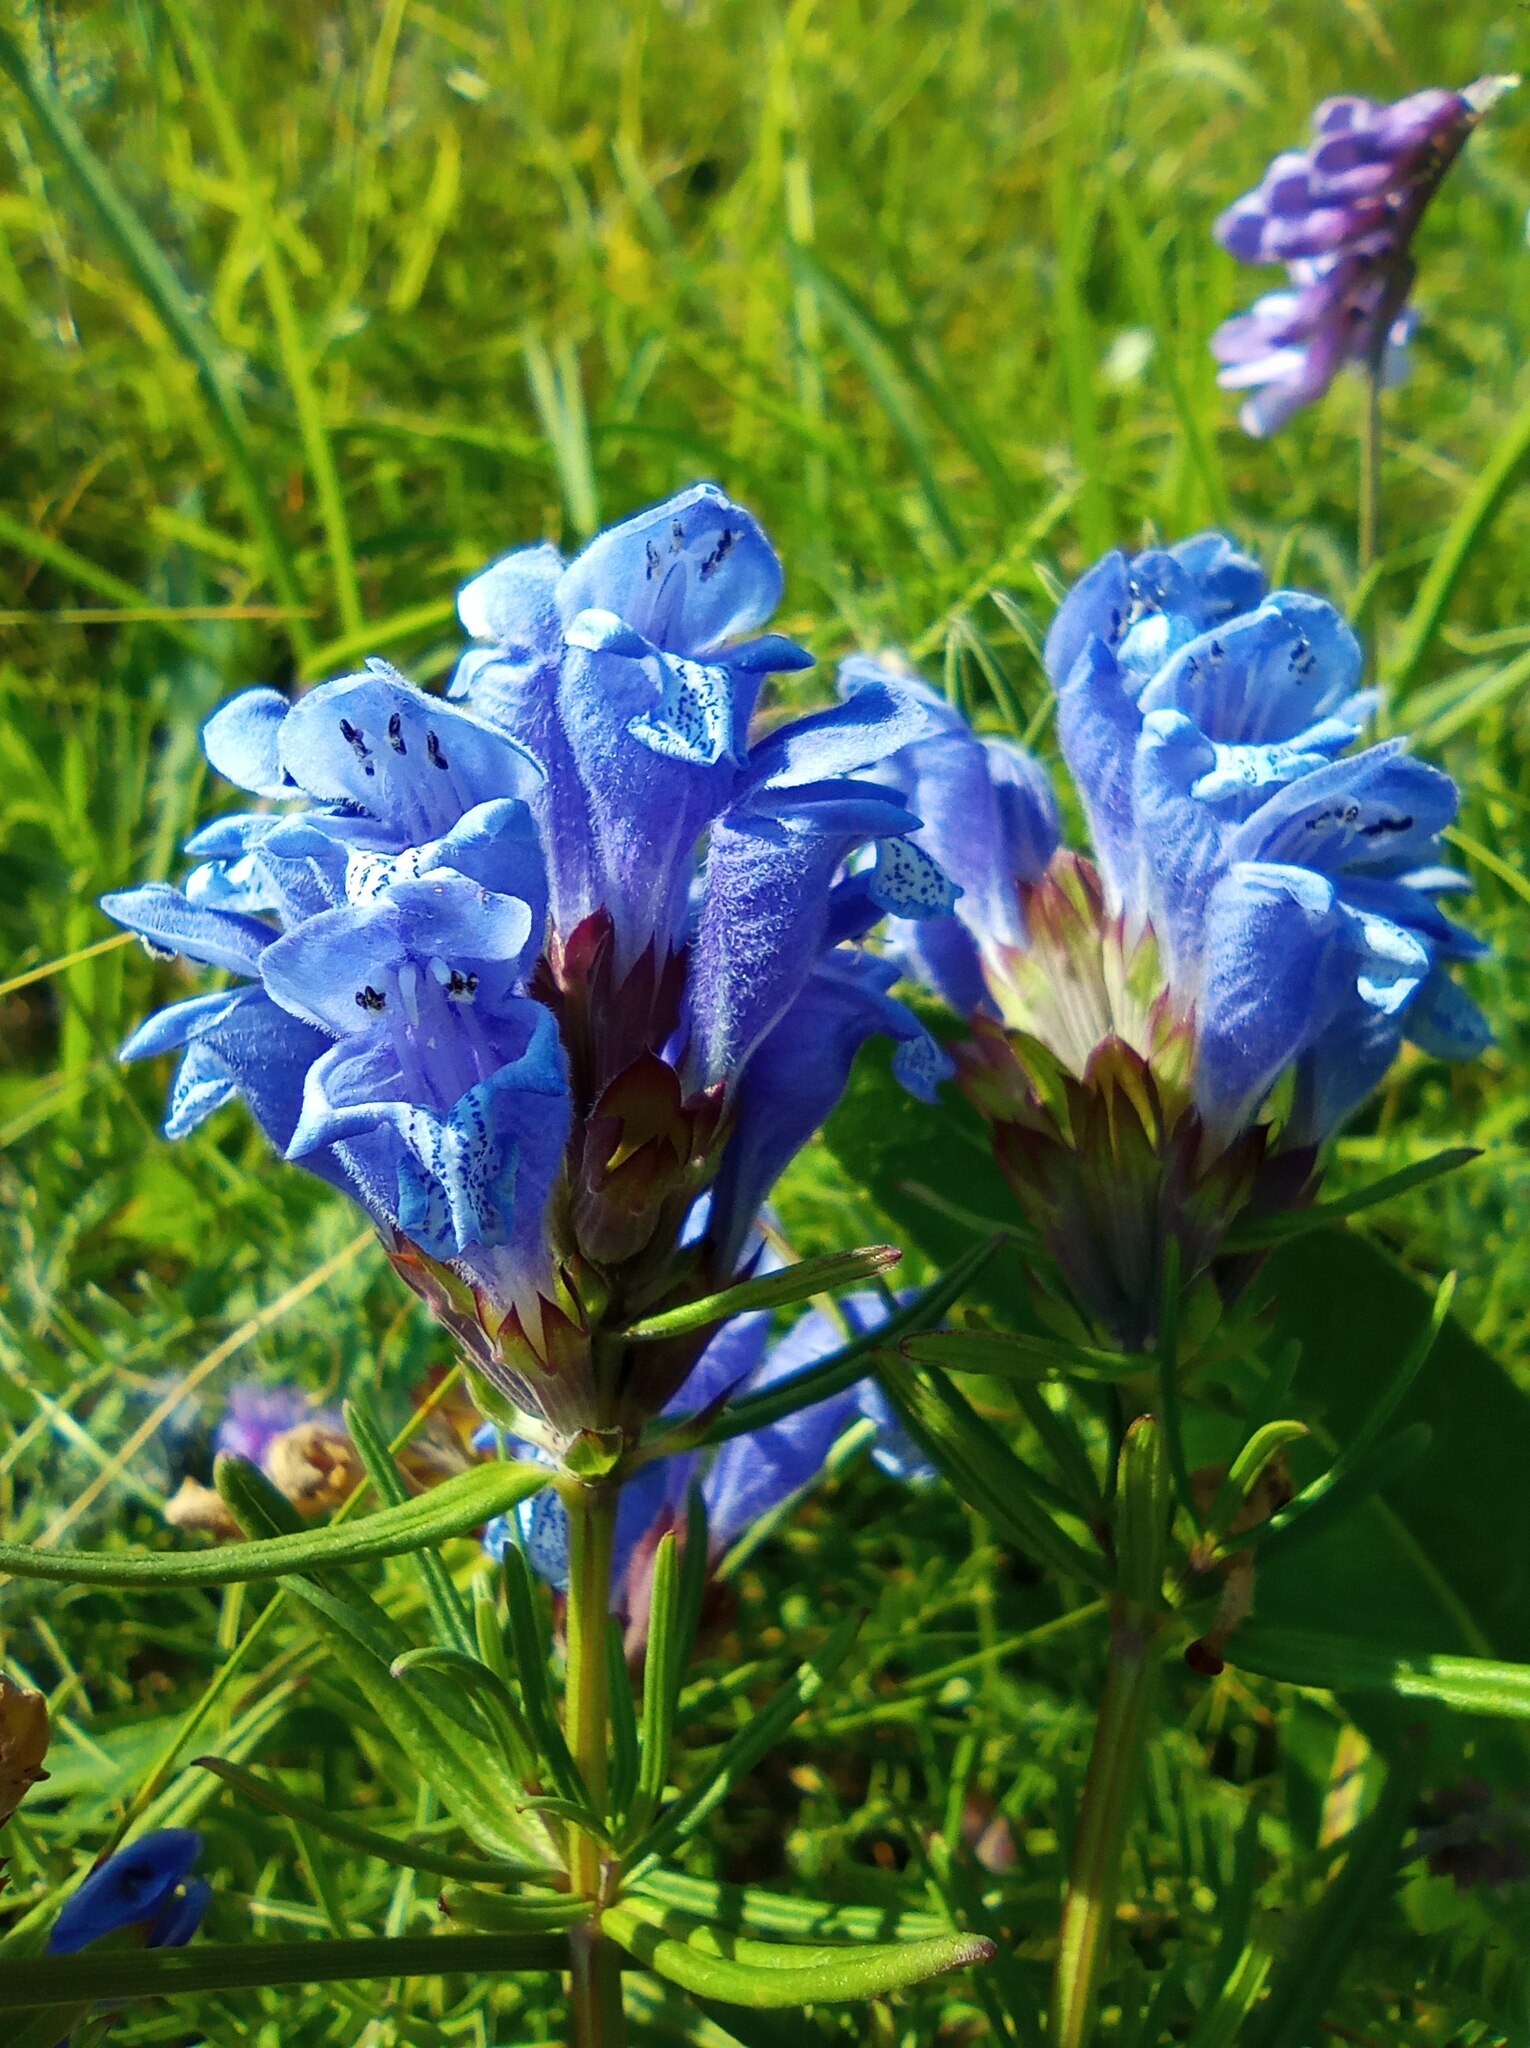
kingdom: Plantae
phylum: Tracheophyta
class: Magnoliopsida
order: Lamiales
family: Lamiaceae
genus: Dracocephalum
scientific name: Dracocephalum ruyschiana
